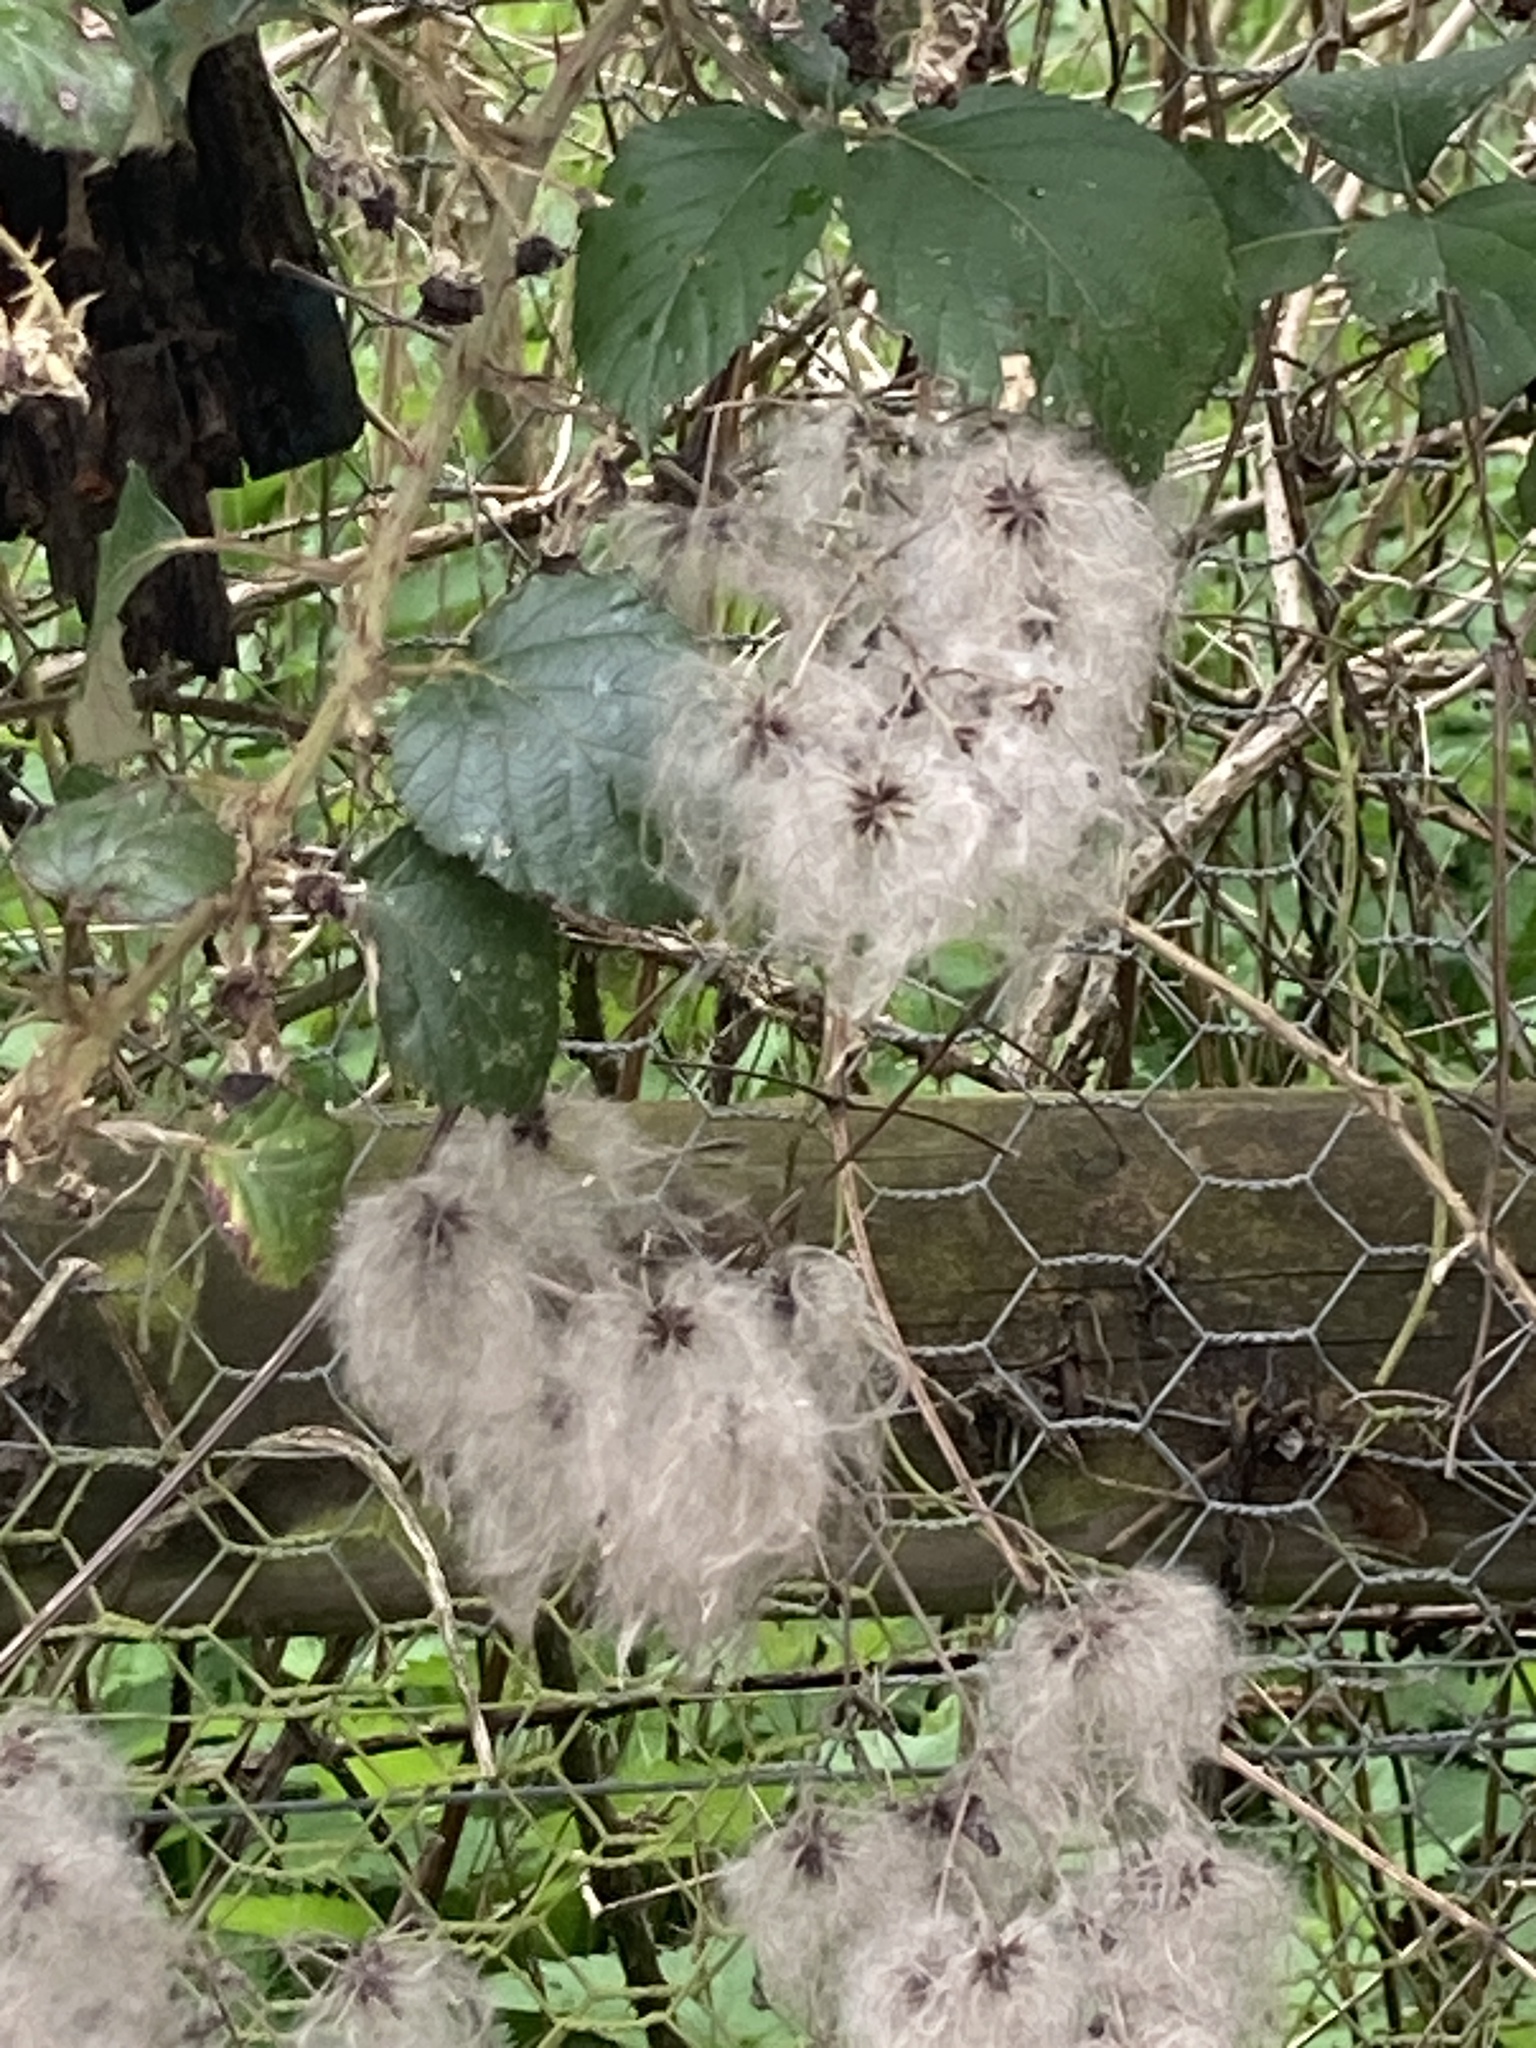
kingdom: Plantae
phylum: Tracheophyta
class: Magnoliopsida
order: Ranunculales
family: Ranunculaceae
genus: Clematis
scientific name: Clematis vitalba
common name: Evergreen clematis
